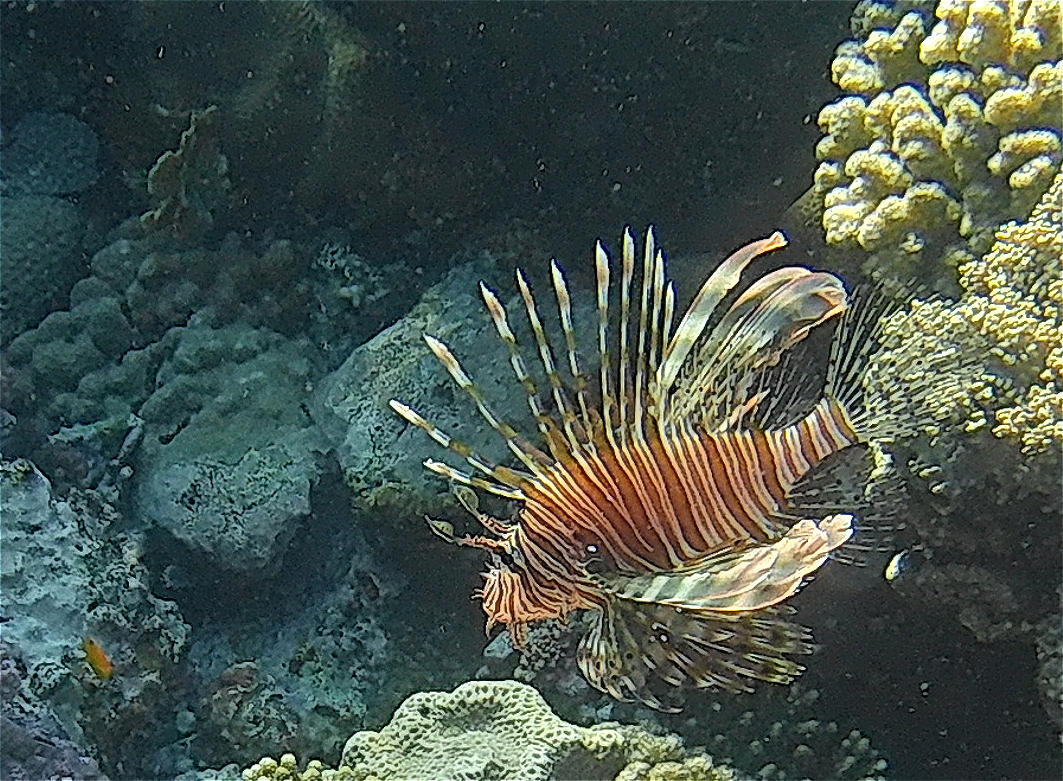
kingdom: Animalia
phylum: Chordata
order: Scorpaeniformes
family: Scorpaenidae
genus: Pterois
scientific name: Pterois miles
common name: Devil firefish
